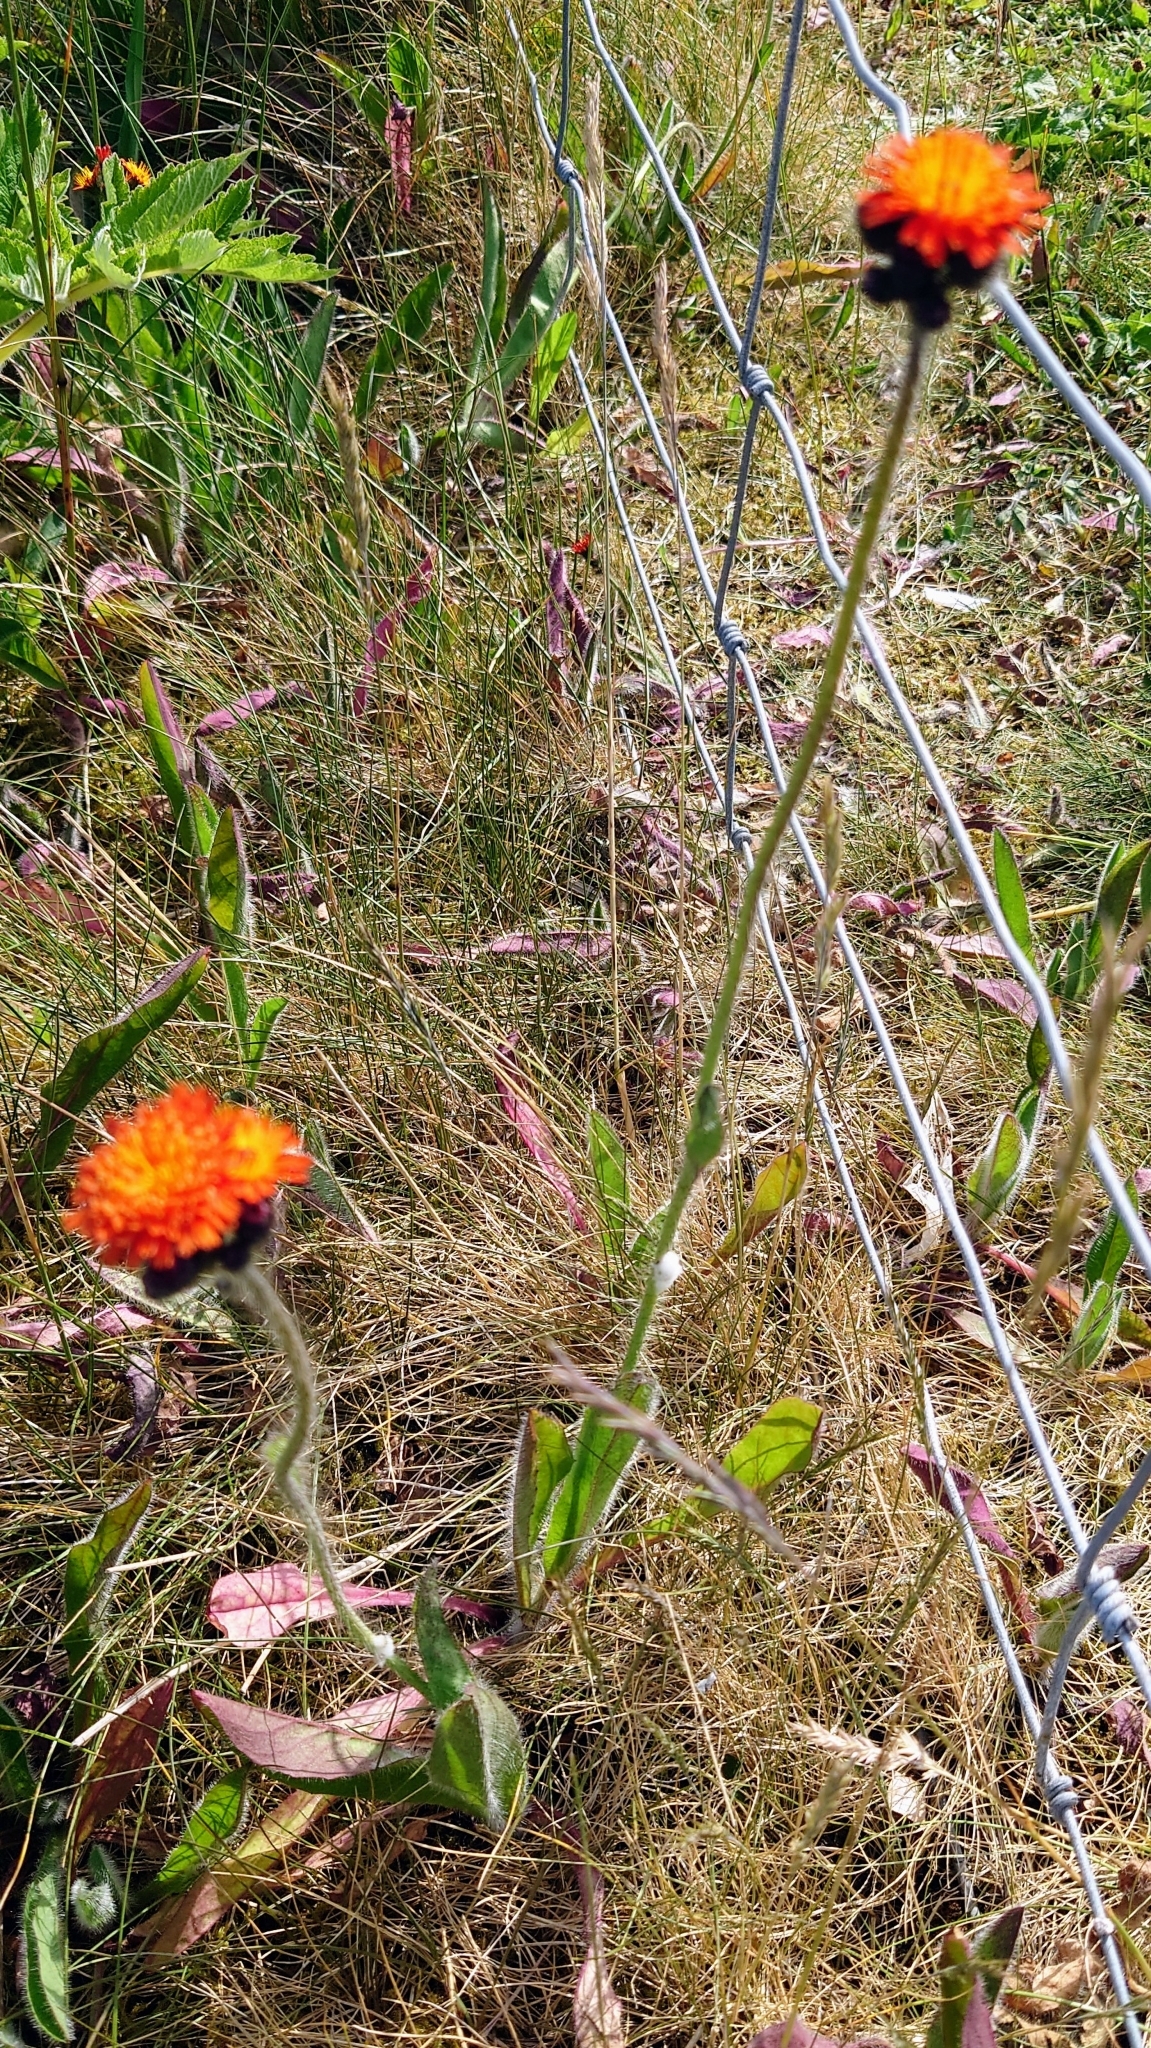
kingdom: Plantae
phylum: Tracheophyta
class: Magnoliopsida
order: Asterales
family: Asteraceae
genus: Pilosella
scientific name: Pilosella aurantiaca
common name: Fox-and-cubs
